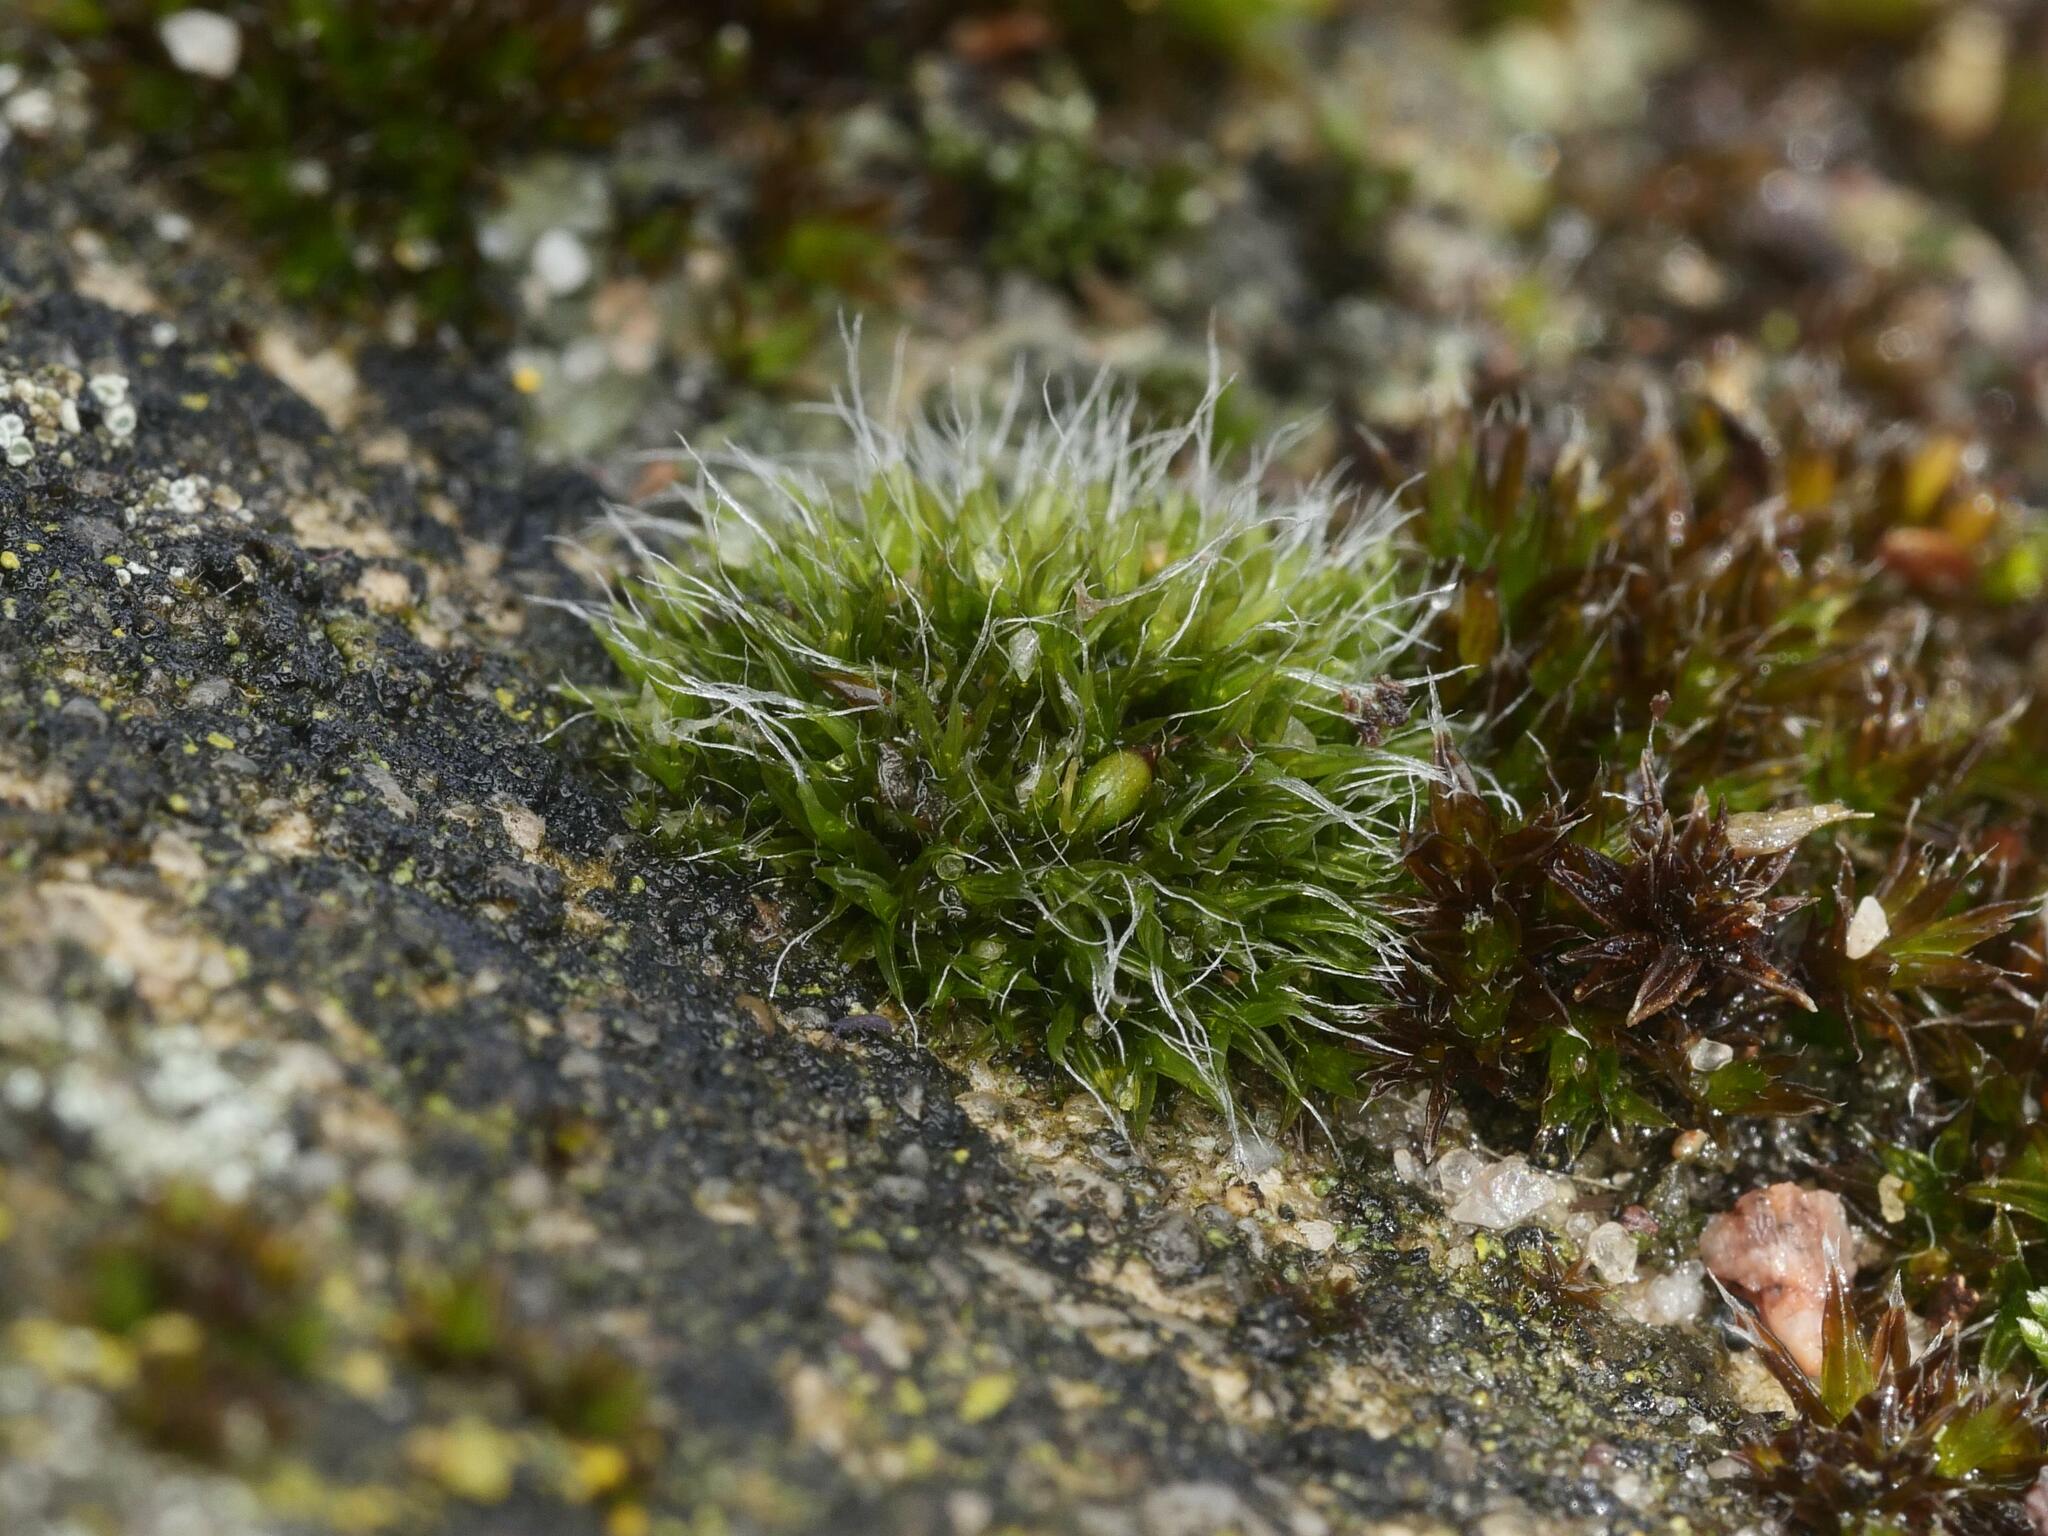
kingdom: Plantae
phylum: Bryophyta
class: Bryopsida
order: Grimmiales
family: Grimmiaceae
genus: Grimmia
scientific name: Grimmia pulvinata
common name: Grey-cushioned grimmia
